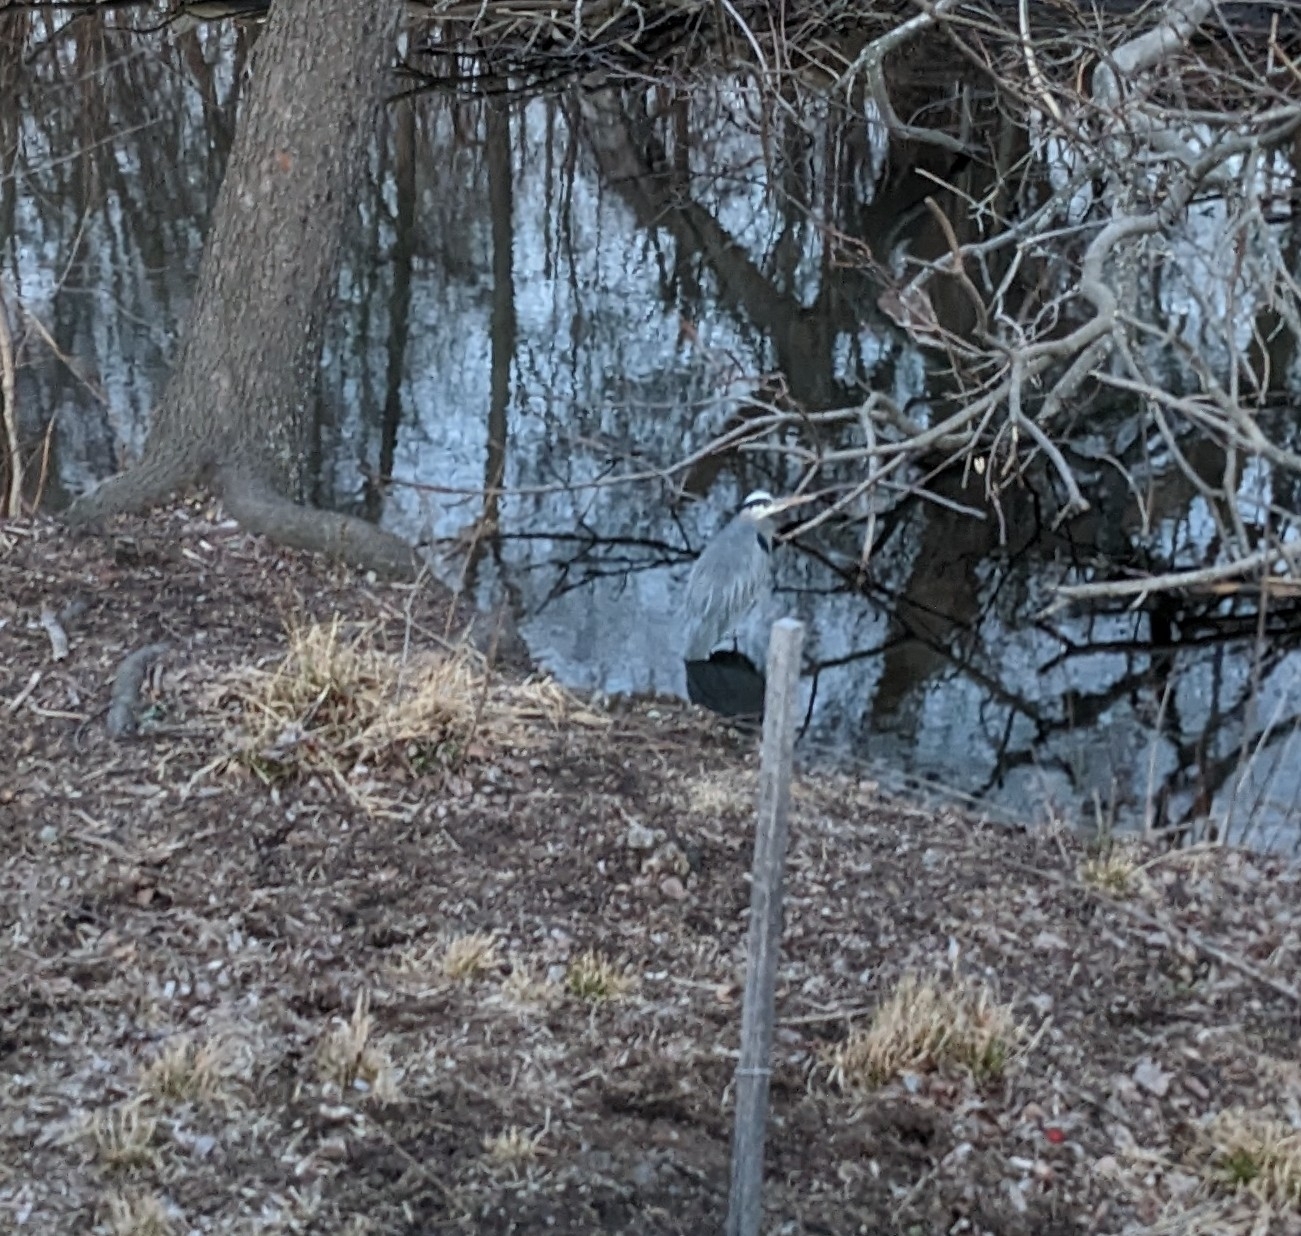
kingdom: Animalia
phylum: Chordata
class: Aves
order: Pelecaniformes
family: Ardeidae
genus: Ardea
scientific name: Ardea herodias
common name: Great blue heron
